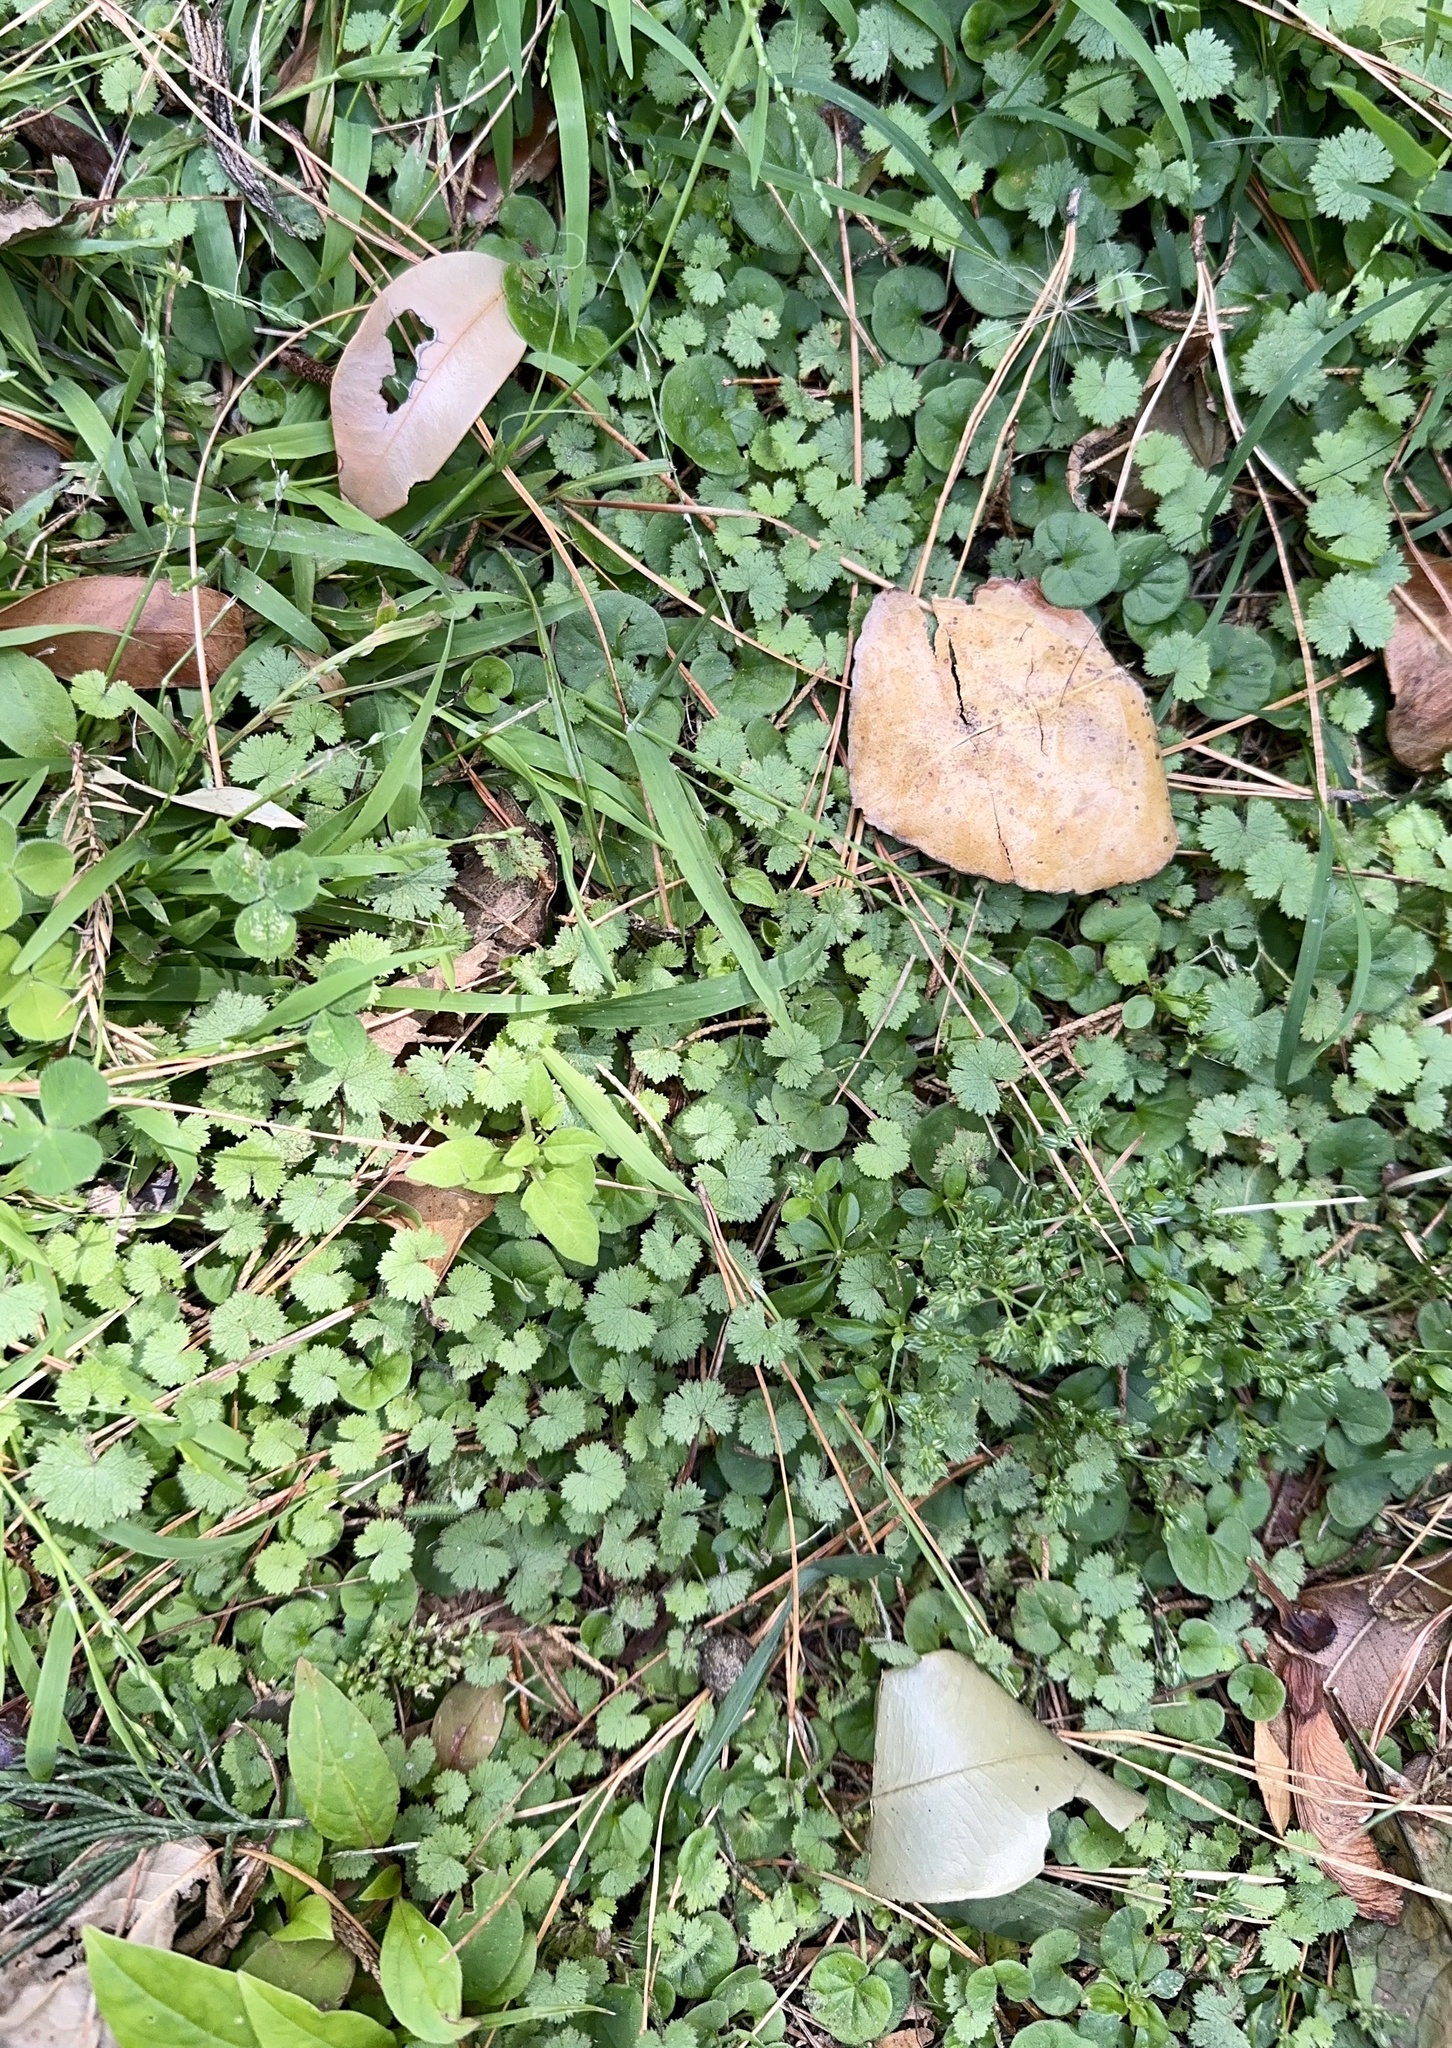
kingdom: Plantae
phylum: Tracheophyta
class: Magnoliopsida
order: Apiales
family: Araliaceae
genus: Hydrocotyle
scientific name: Hydrocotyle moschata
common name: Hairy pennywort
